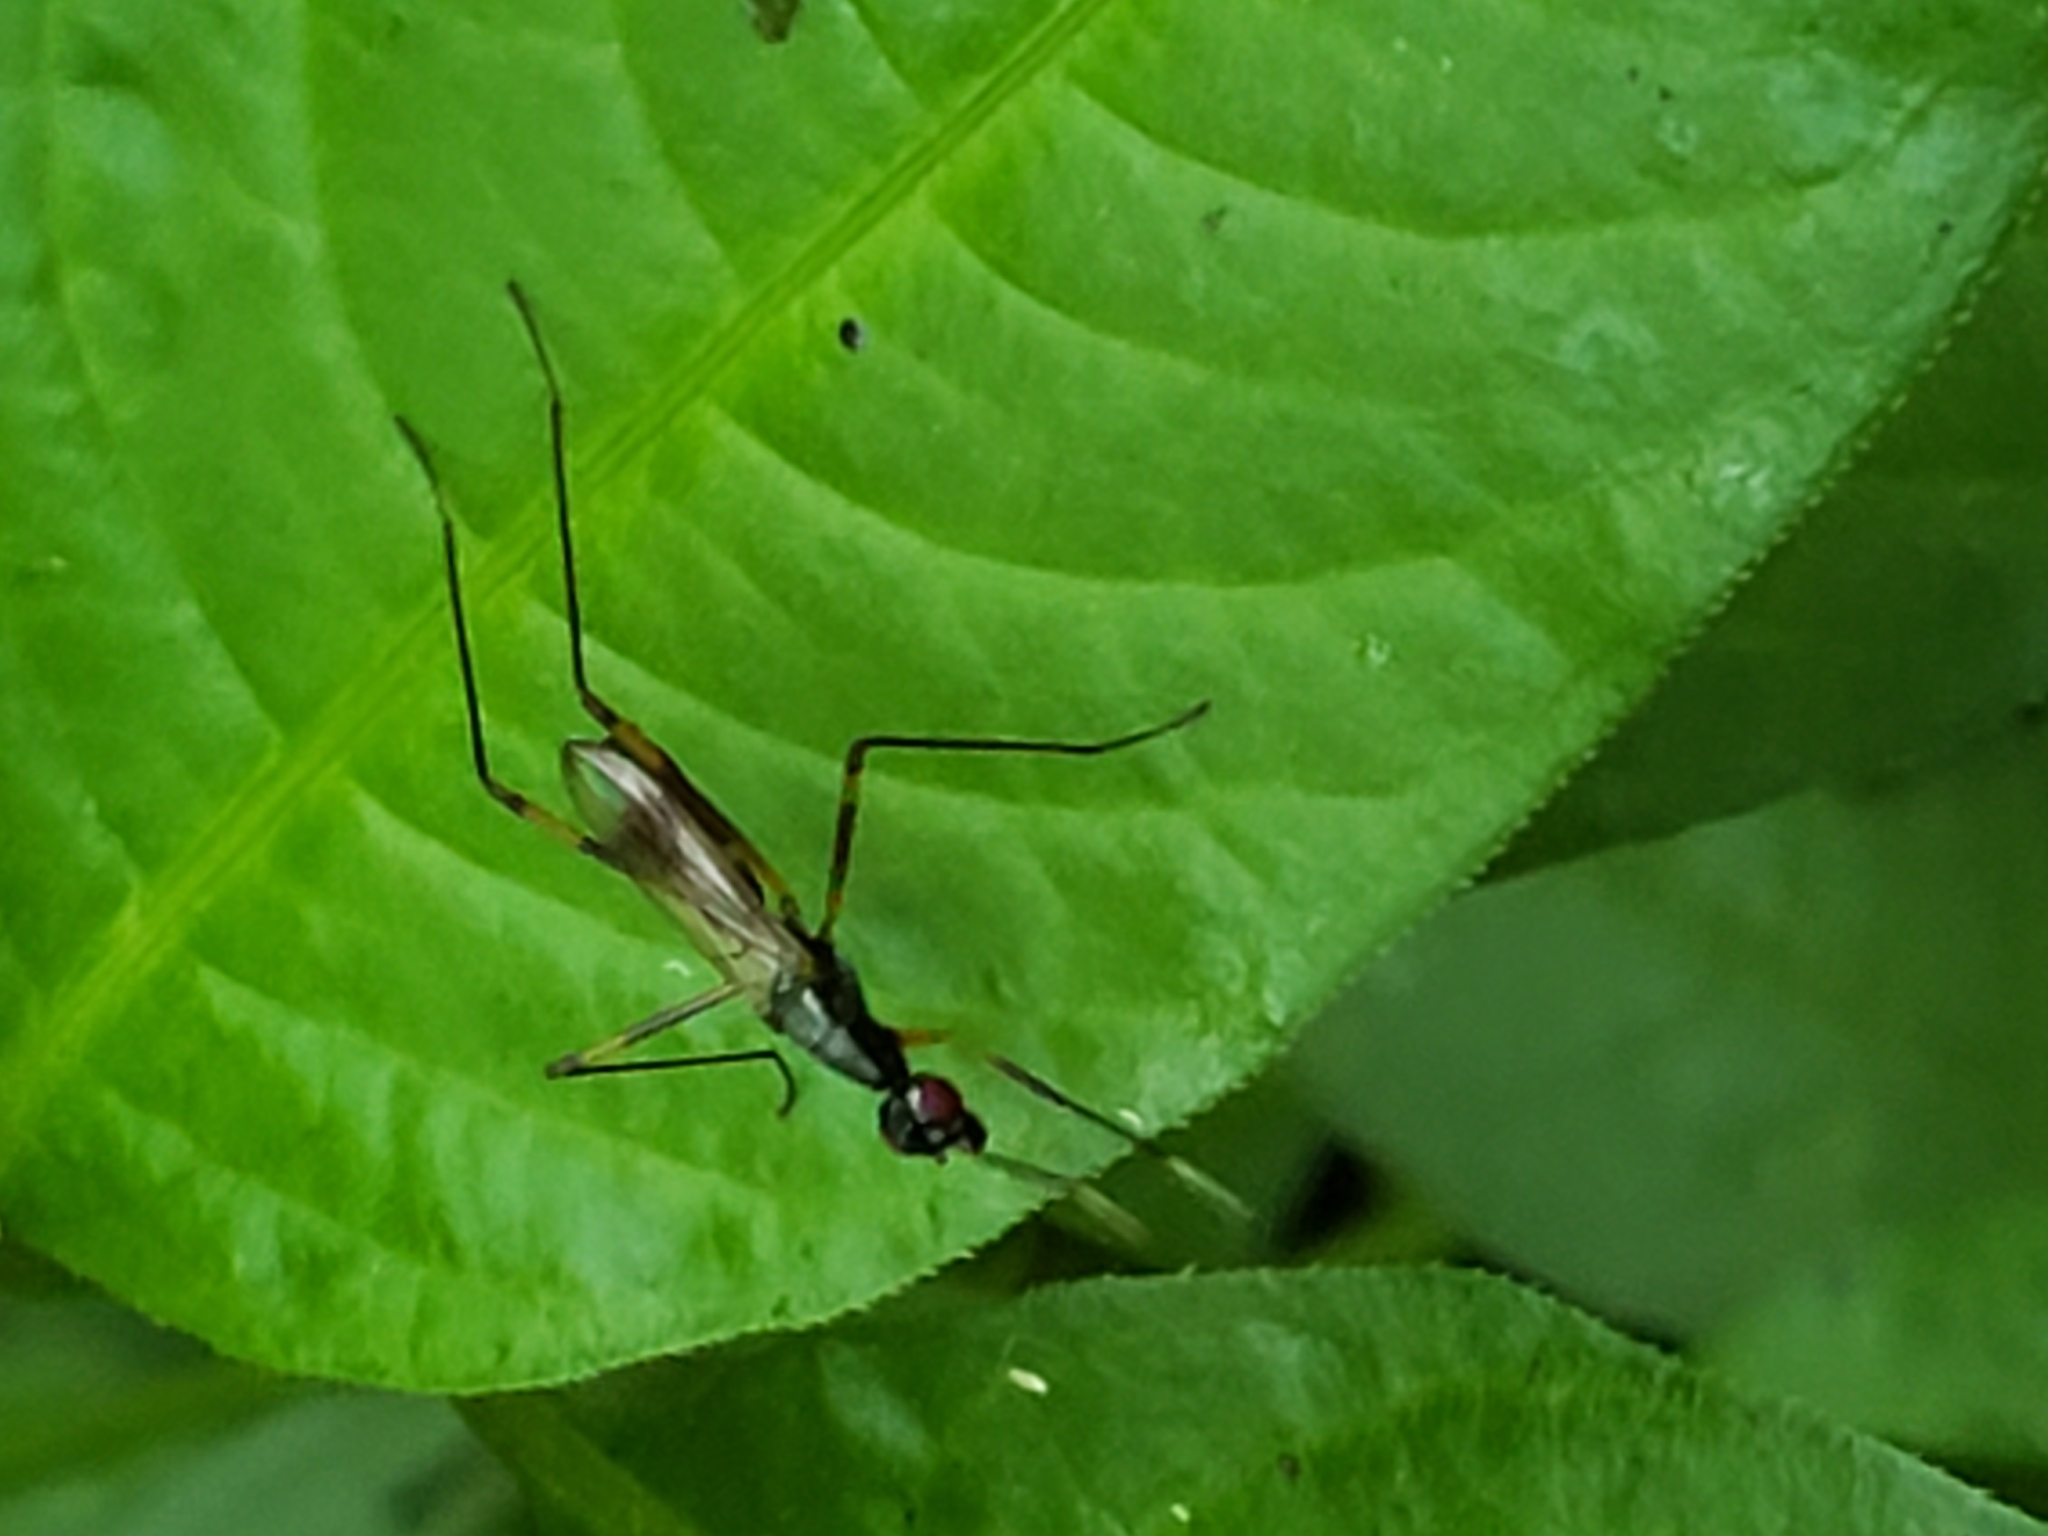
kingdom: Animalia
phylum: Arthropoda
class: Insecta
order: Diptera
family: Micropezidae
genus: Rainieria
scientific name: Rainieria antennaepes
